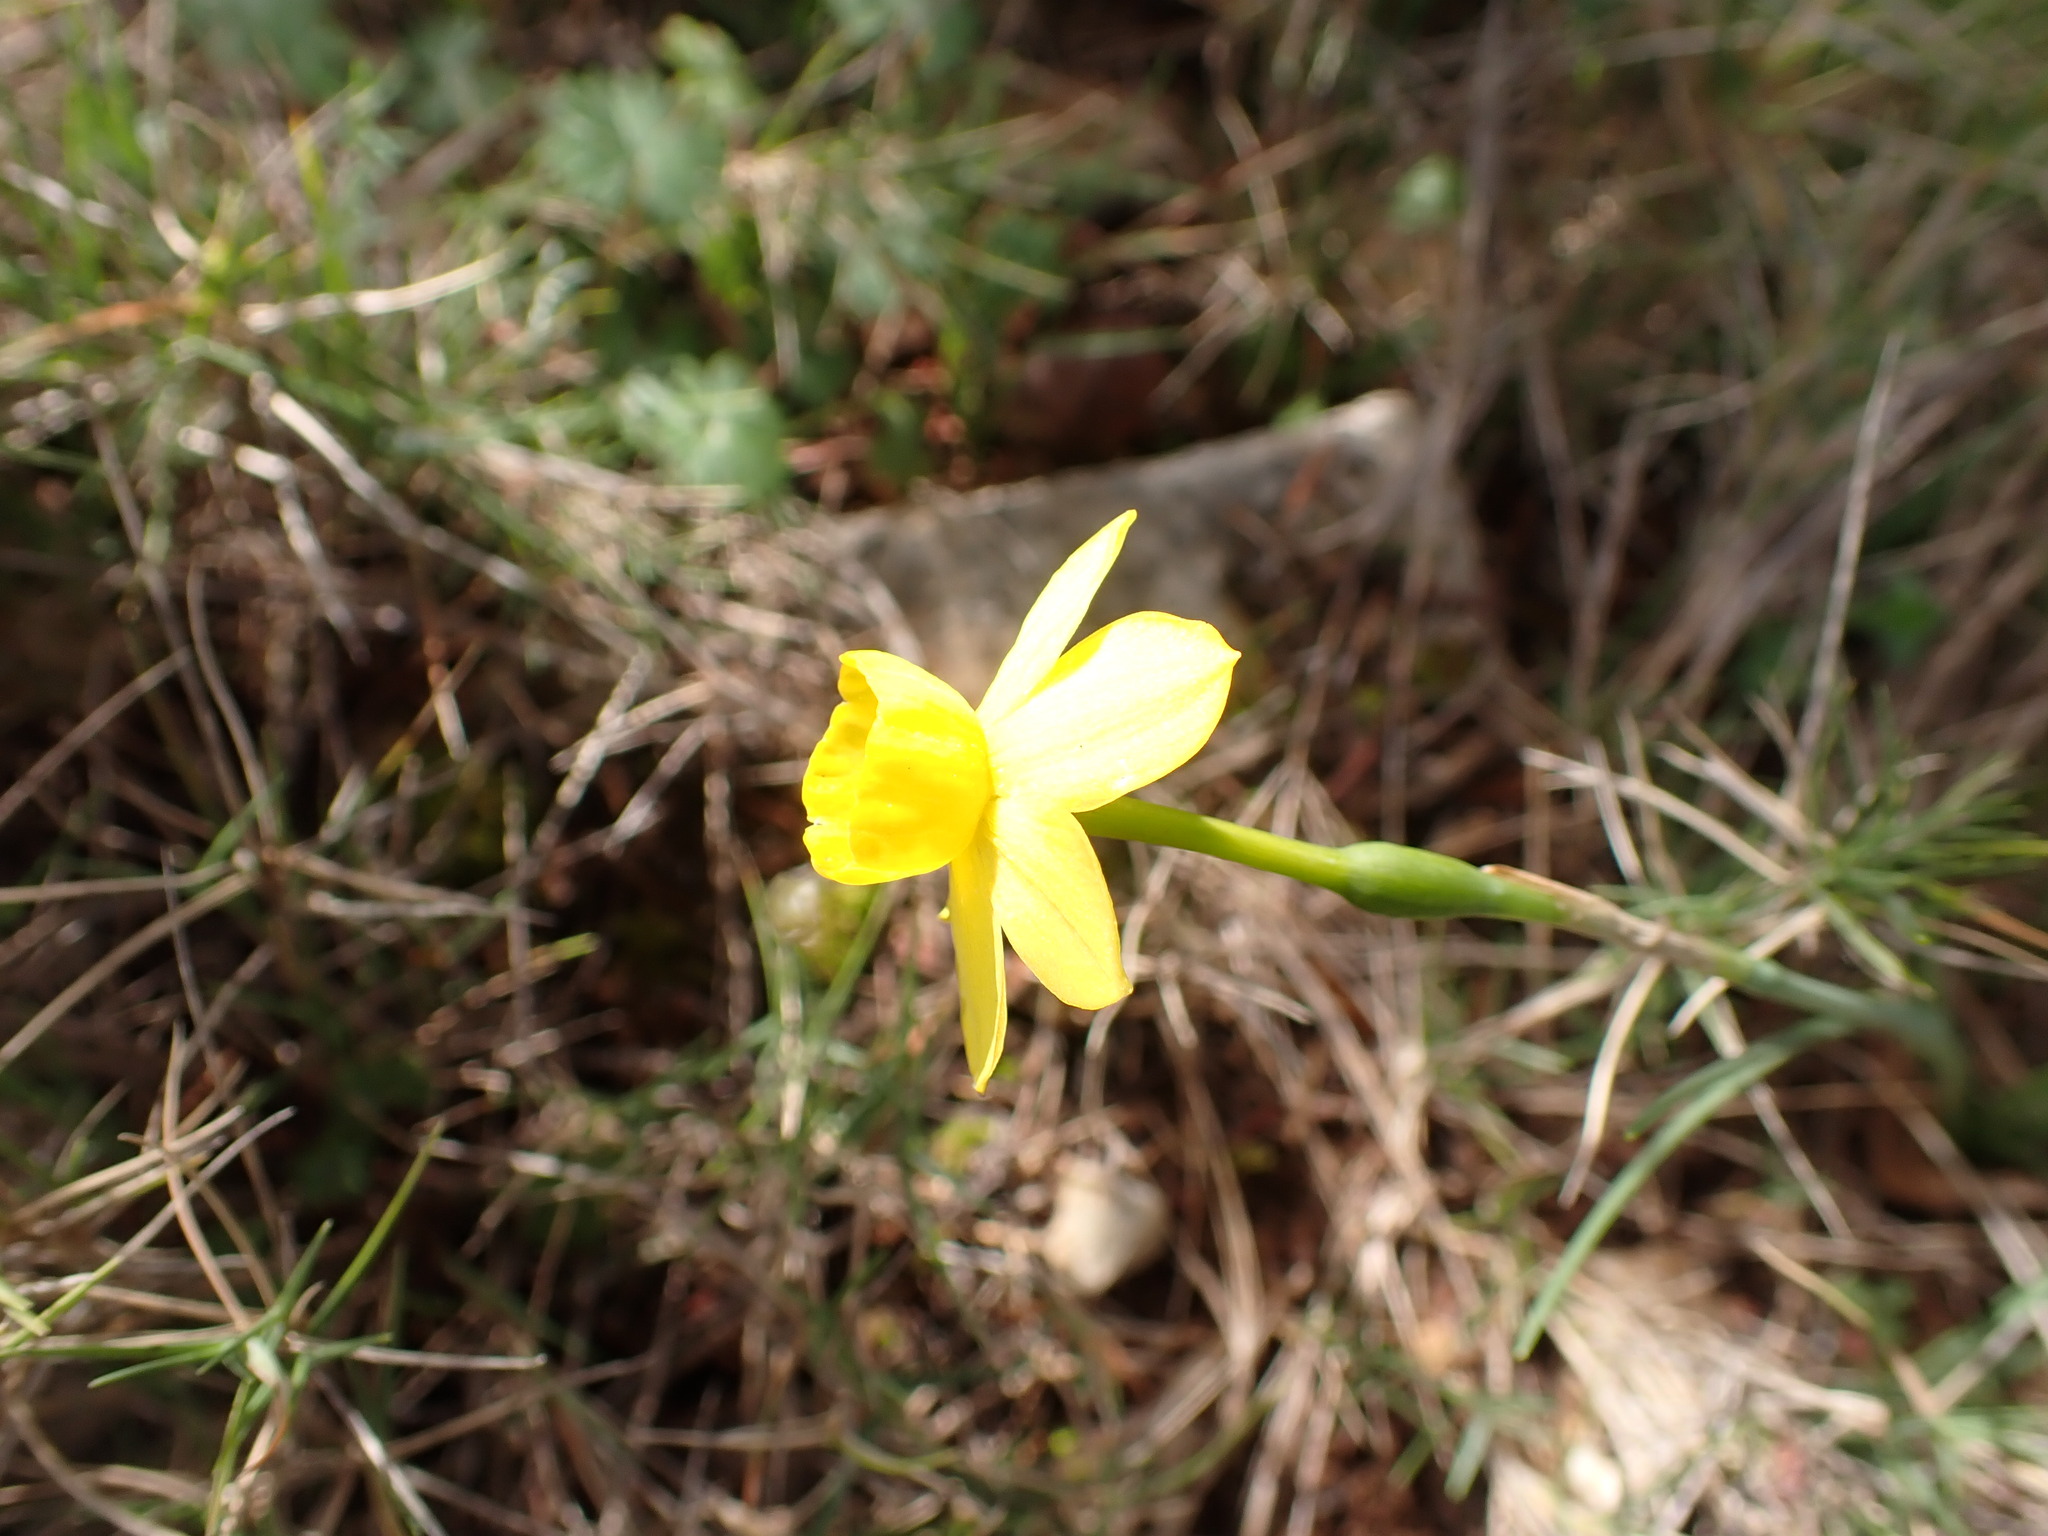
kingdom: Plantae
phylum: Tracheophyta
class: Liliopsida
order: Asparagales
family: Amaryllidaceae
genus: Narcissus
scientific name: Narcissus assoanus
